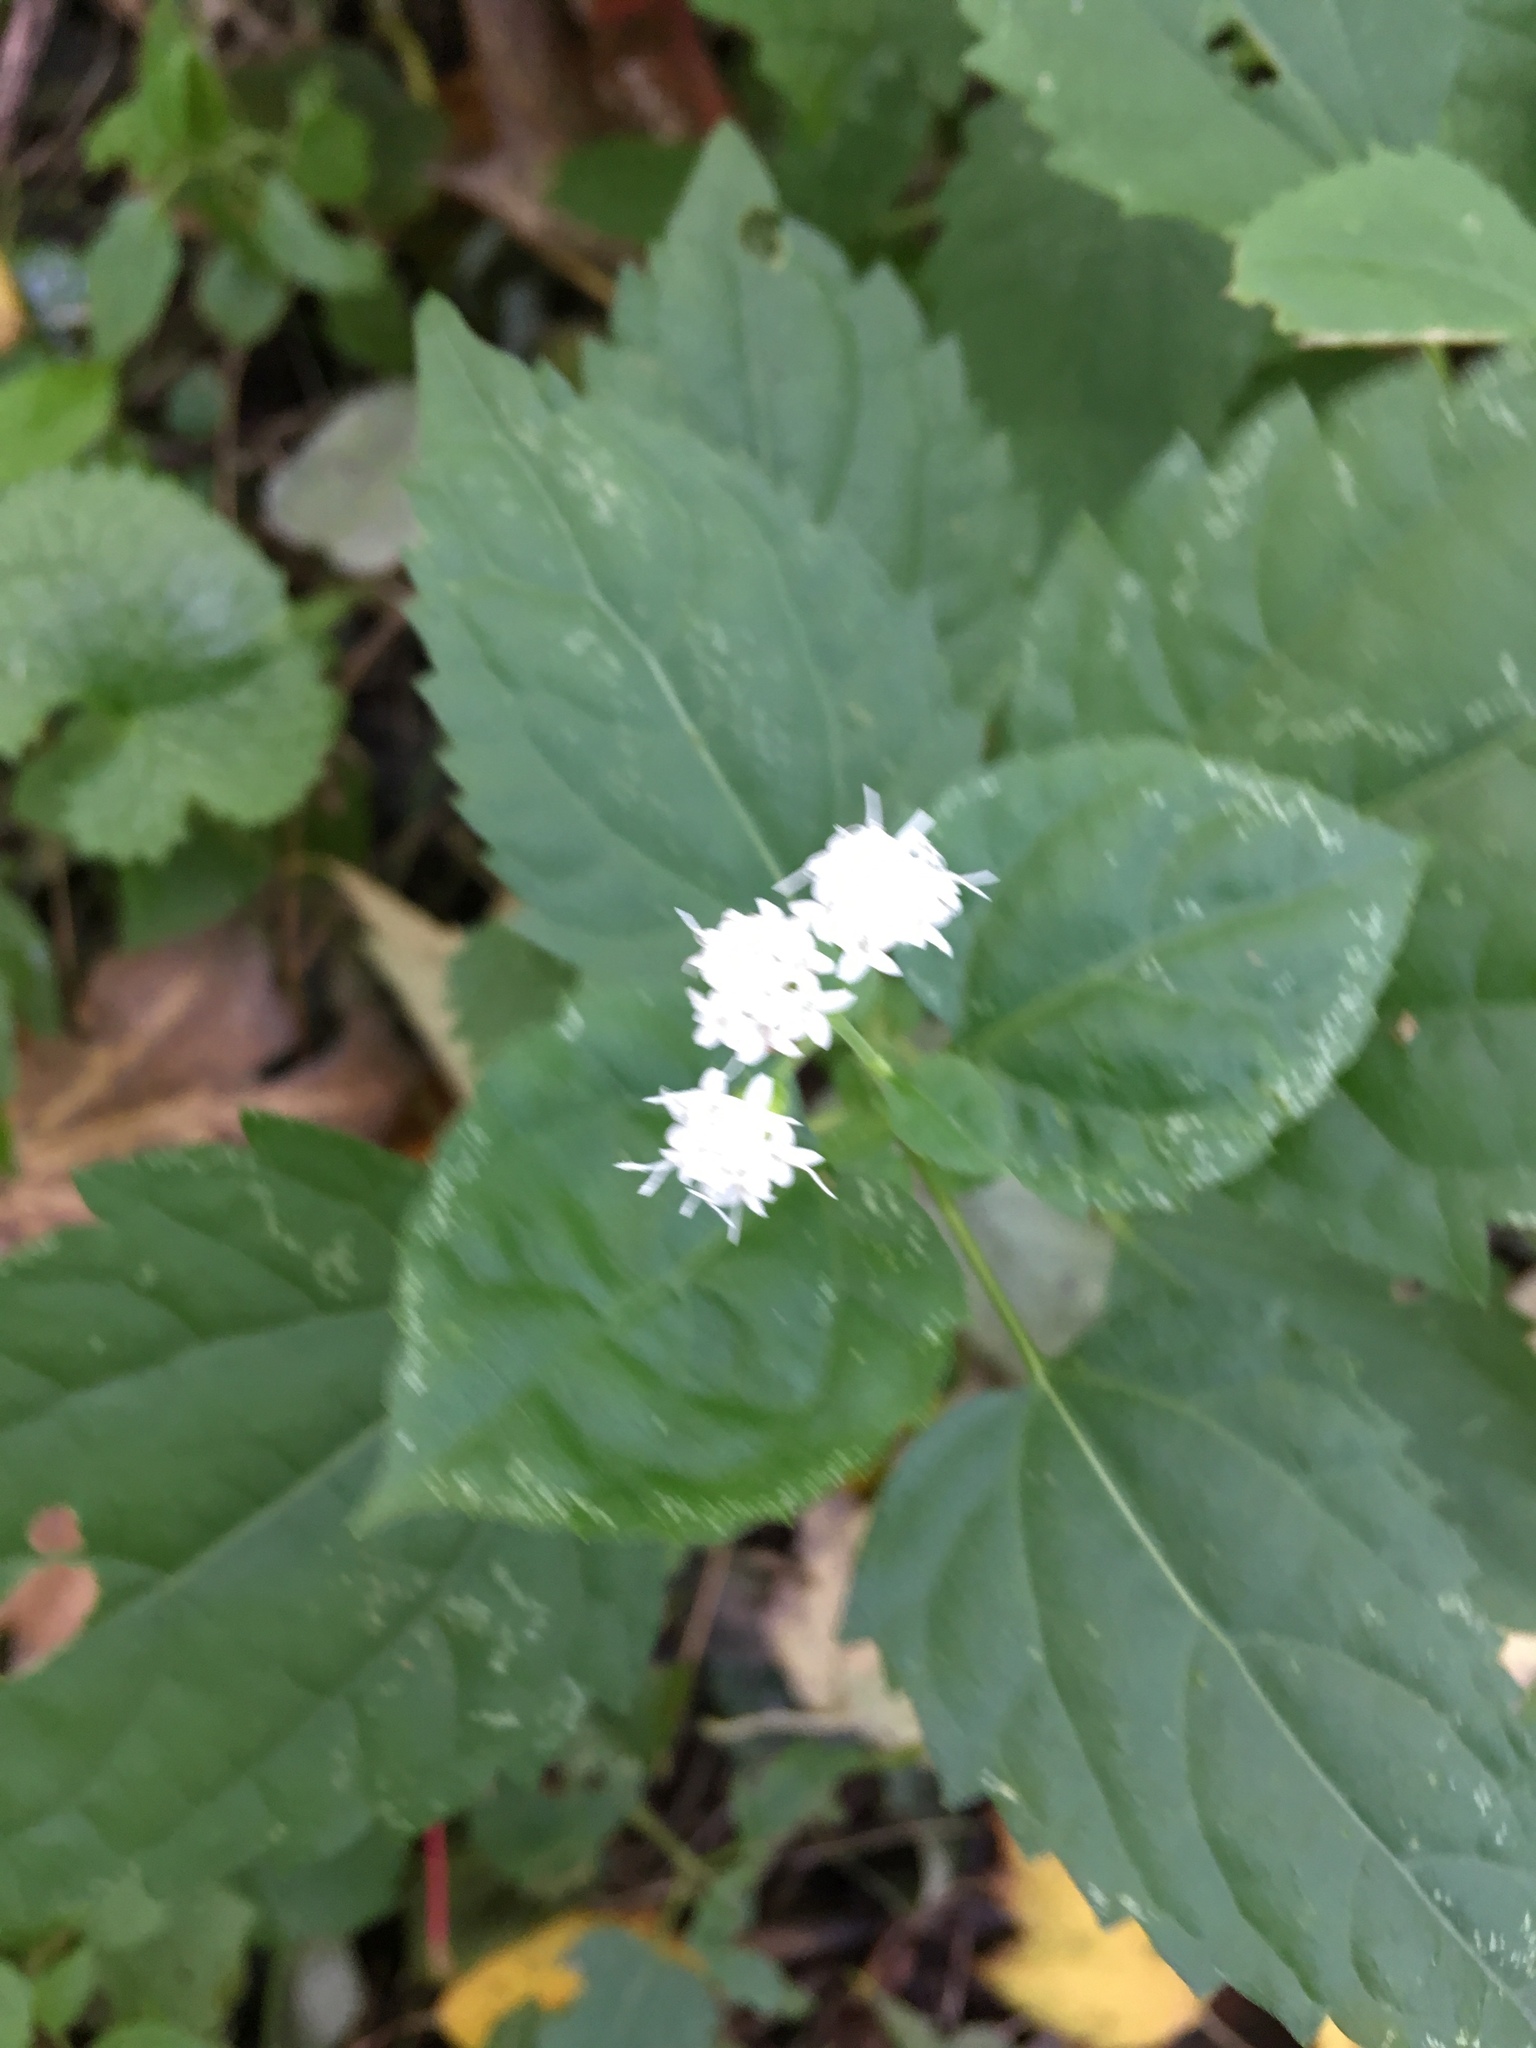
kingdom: Plantae
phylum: Tracheophyta
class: Magnoliopsida
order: Asterales
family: Asteraceae
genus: Ageratina
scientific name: Ageratina altissima
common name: White snakeroot
